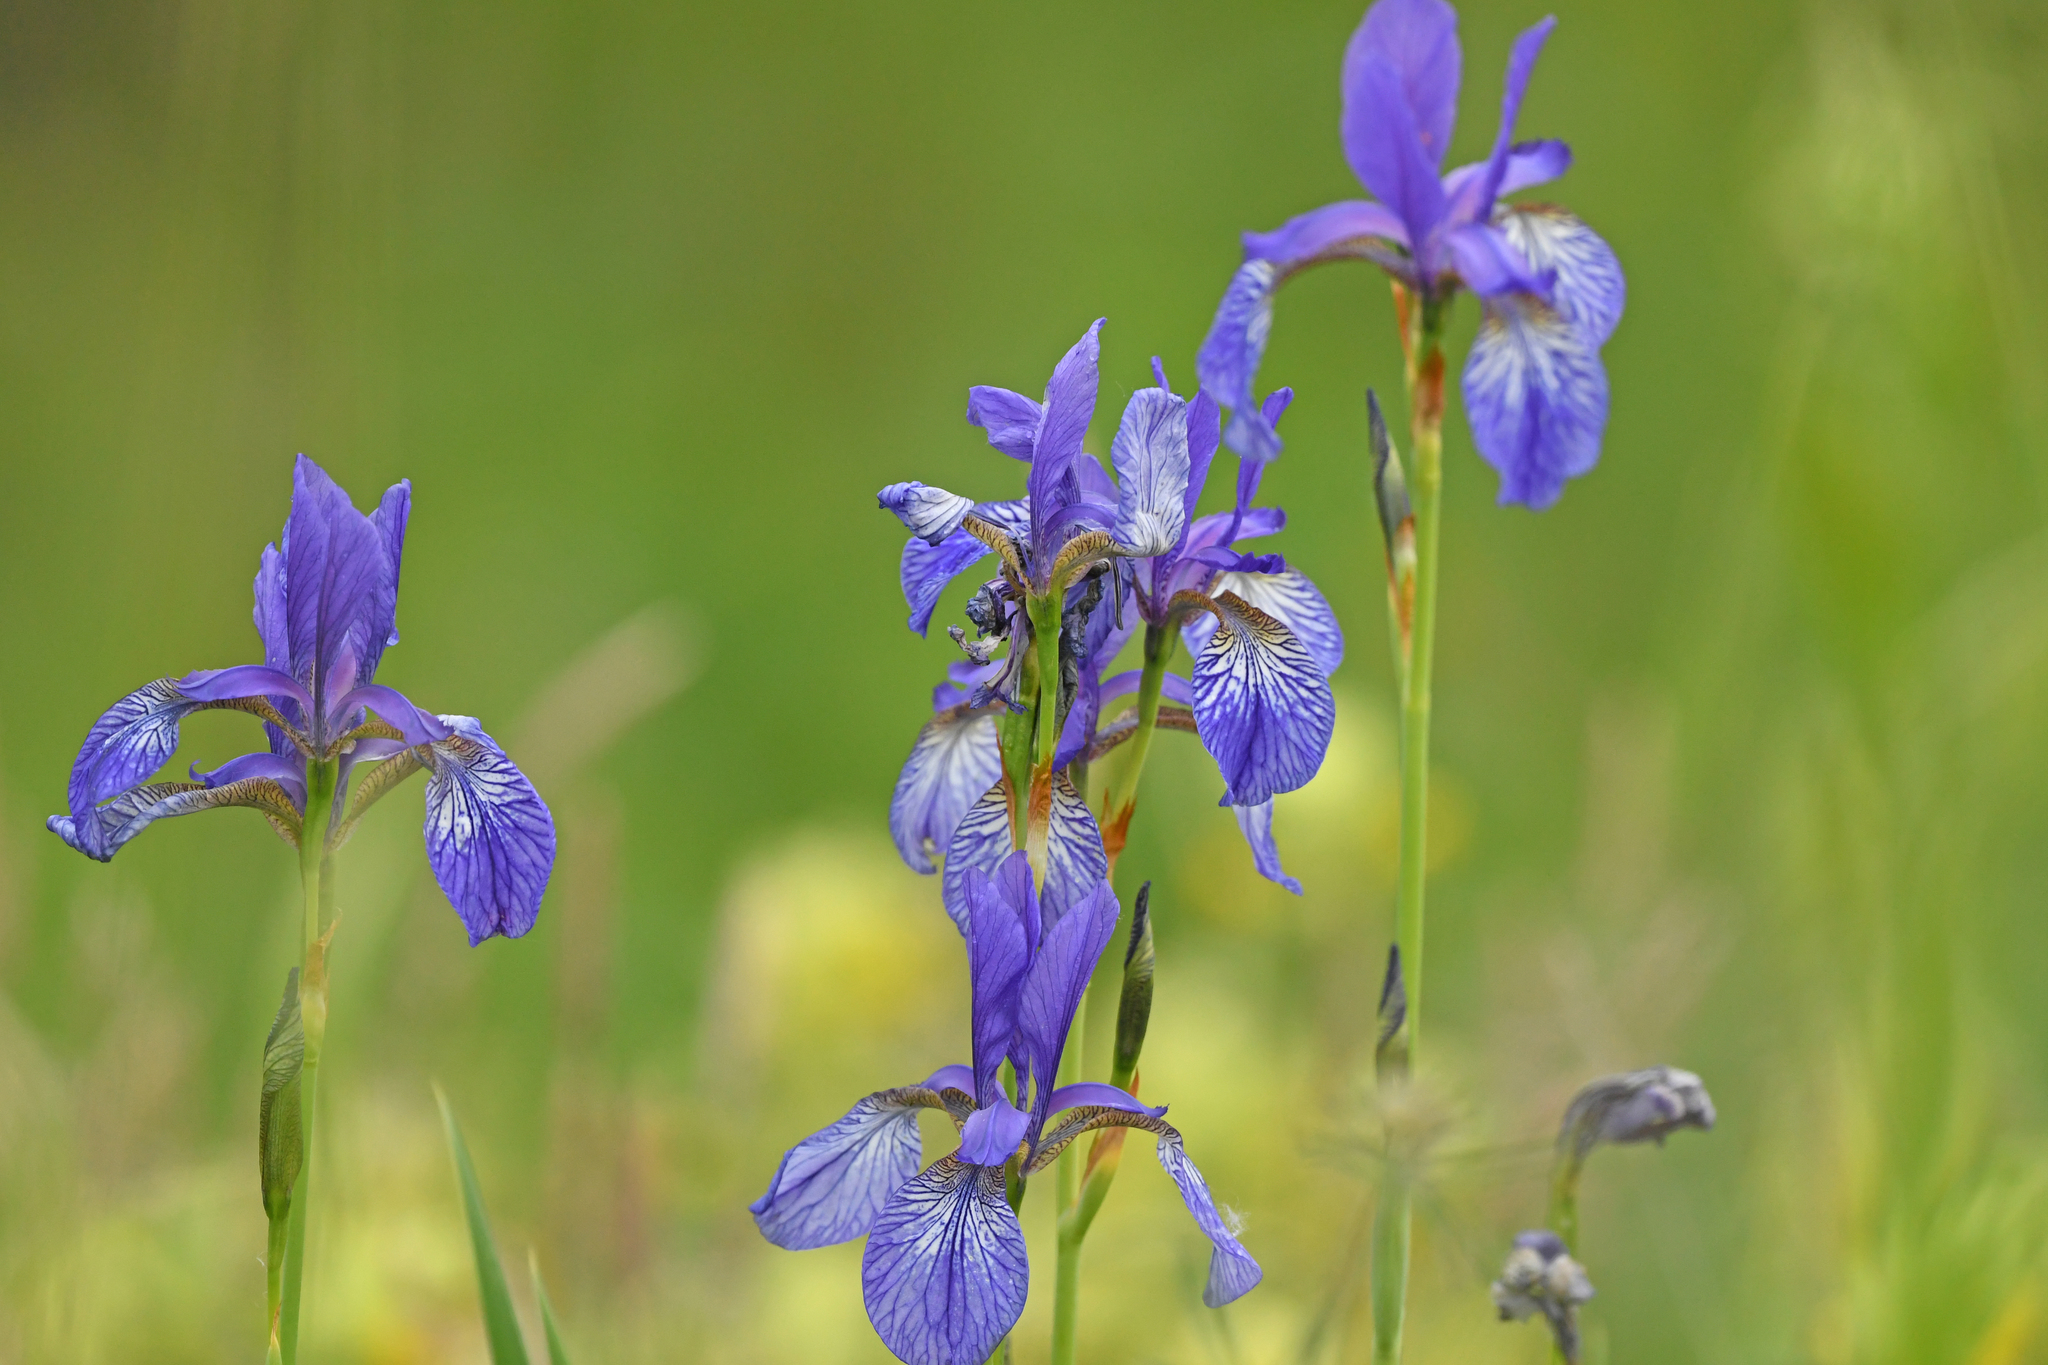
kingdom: Plantae
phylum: Tracheophyta
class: Liliopsida
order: Asparagales
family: Iridaceae
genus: Iris
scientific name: Iris sibirica
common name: Siberian iris
